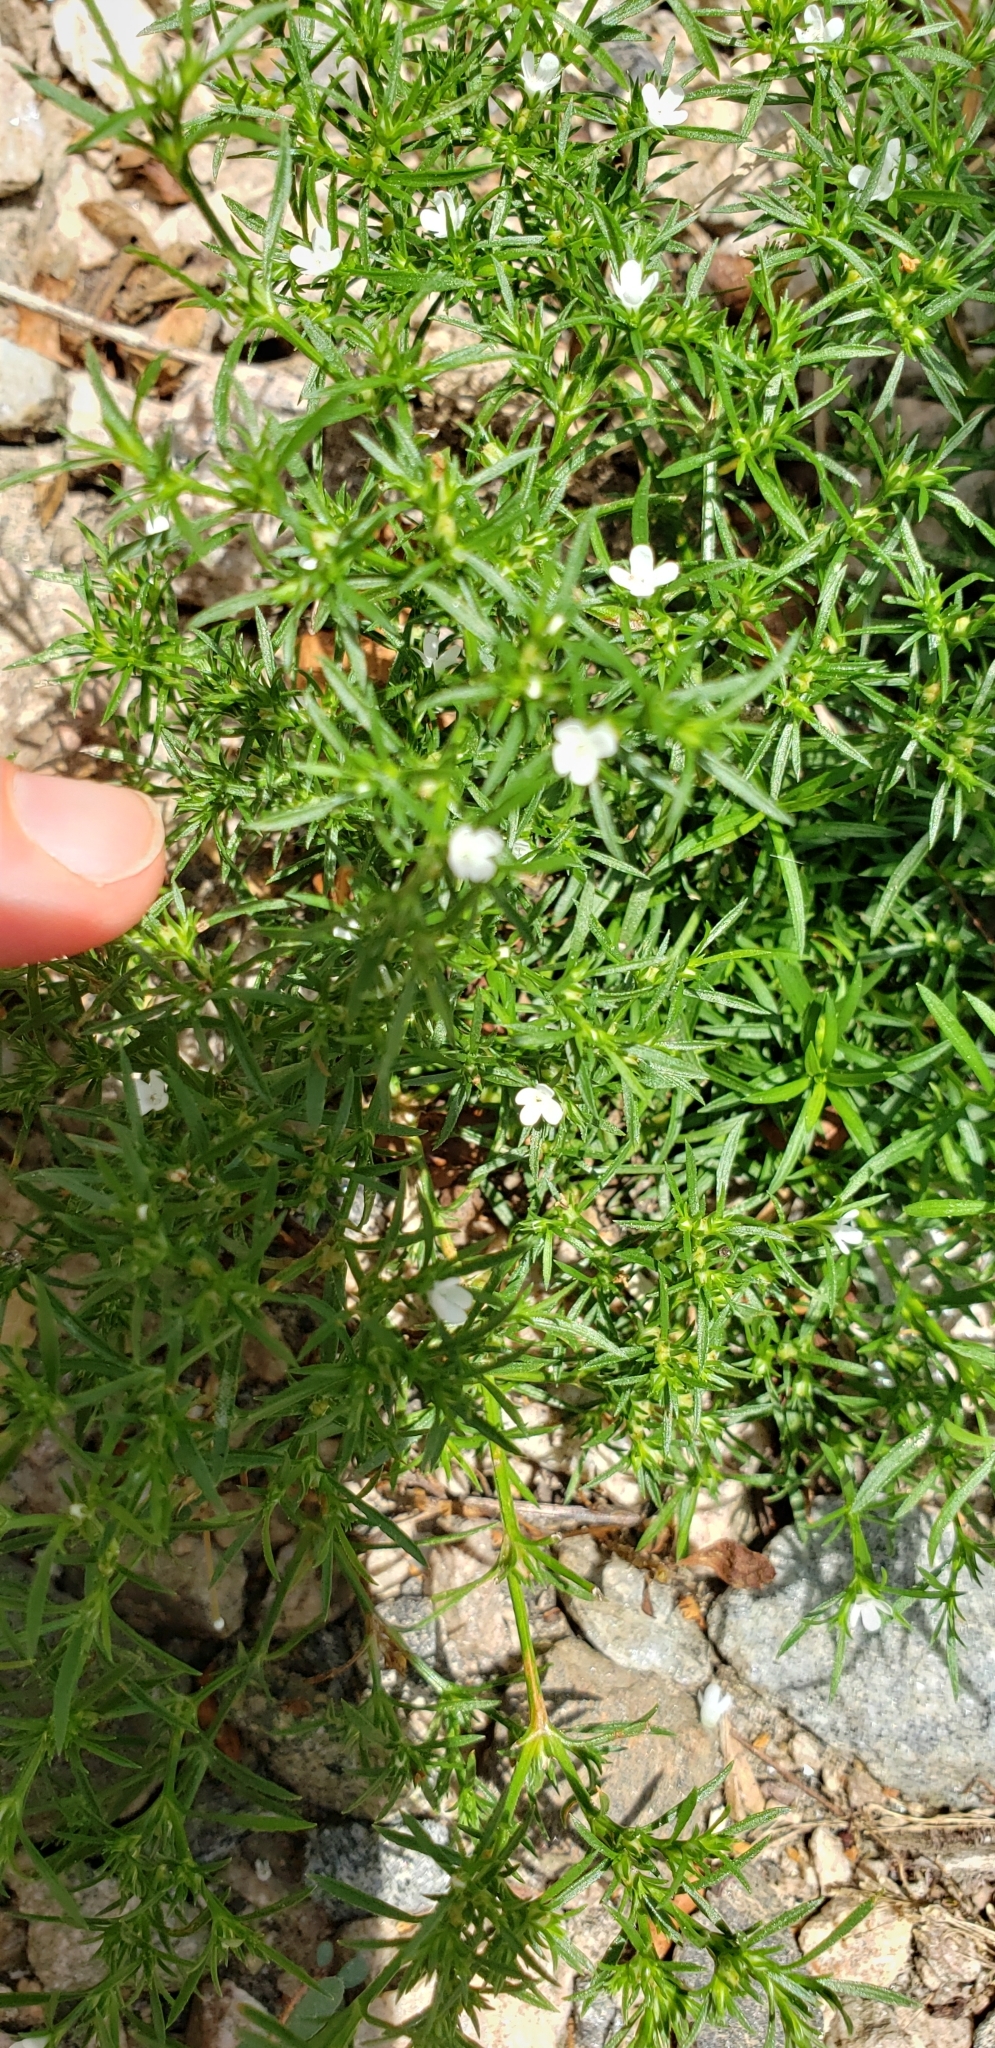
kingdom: Plantae
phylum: Tracheophyta
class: Magnoliopsida
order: Lamiales
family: Tetrachondraceae
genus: Polypremum
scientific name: Polypremum procumbens
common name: Juniper-leaf
